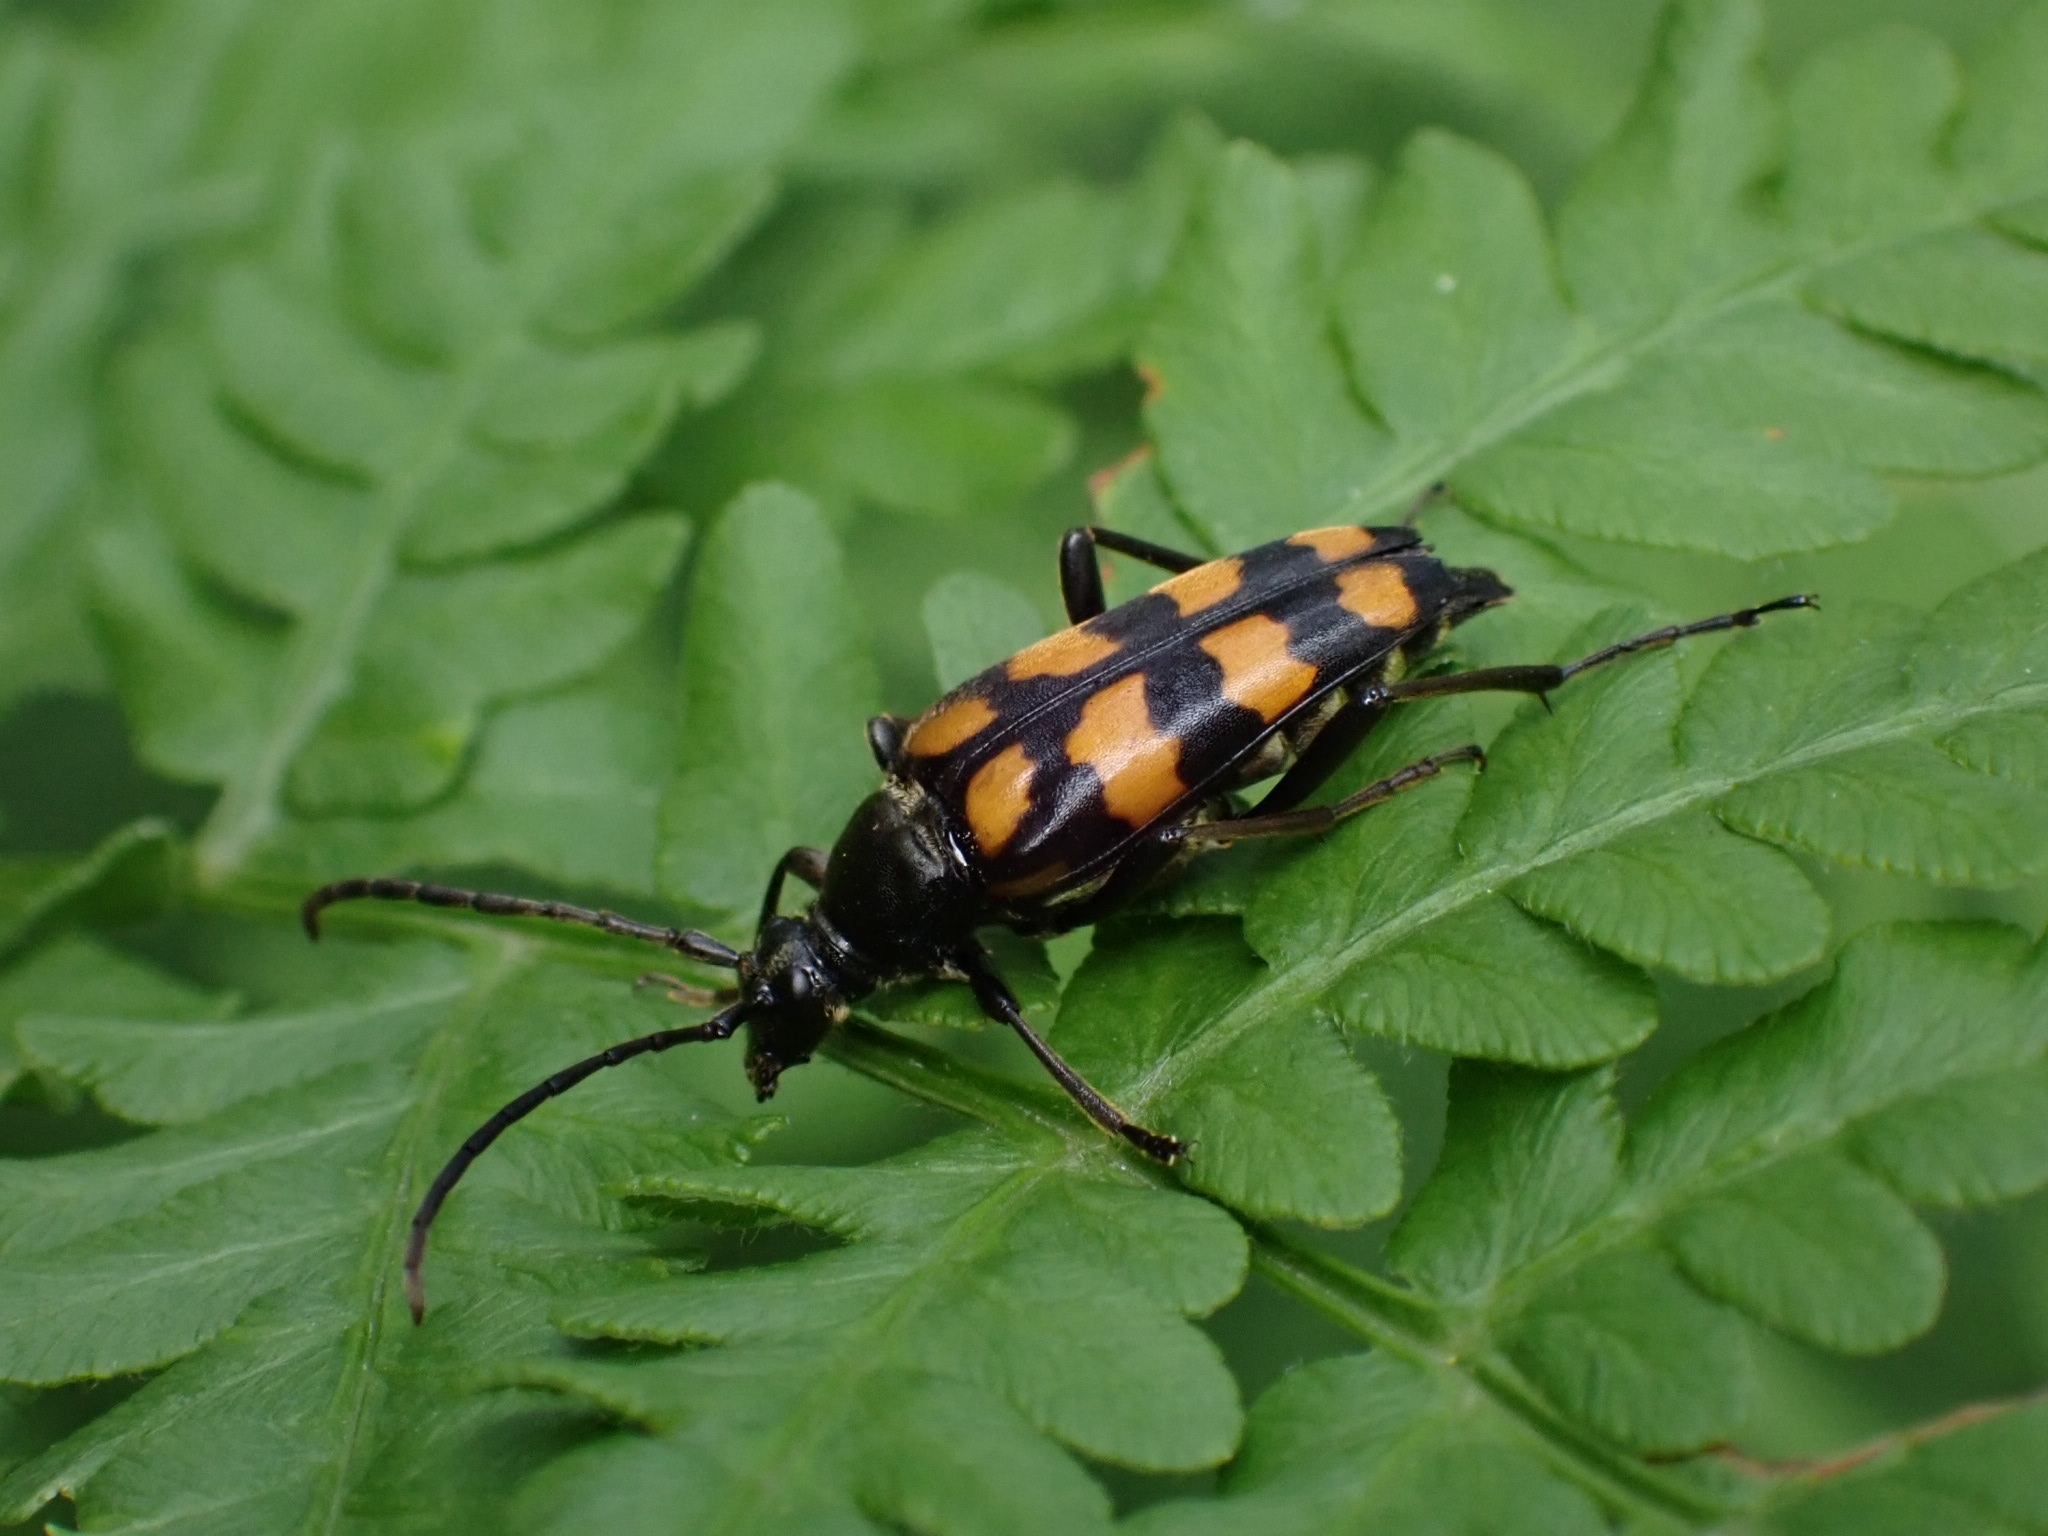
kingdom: Animalia
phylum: Arthropoda
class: Insecta
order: Coleoptera
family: Cerambycidae
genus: Leptura
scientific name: Leptura quadrifasciata
